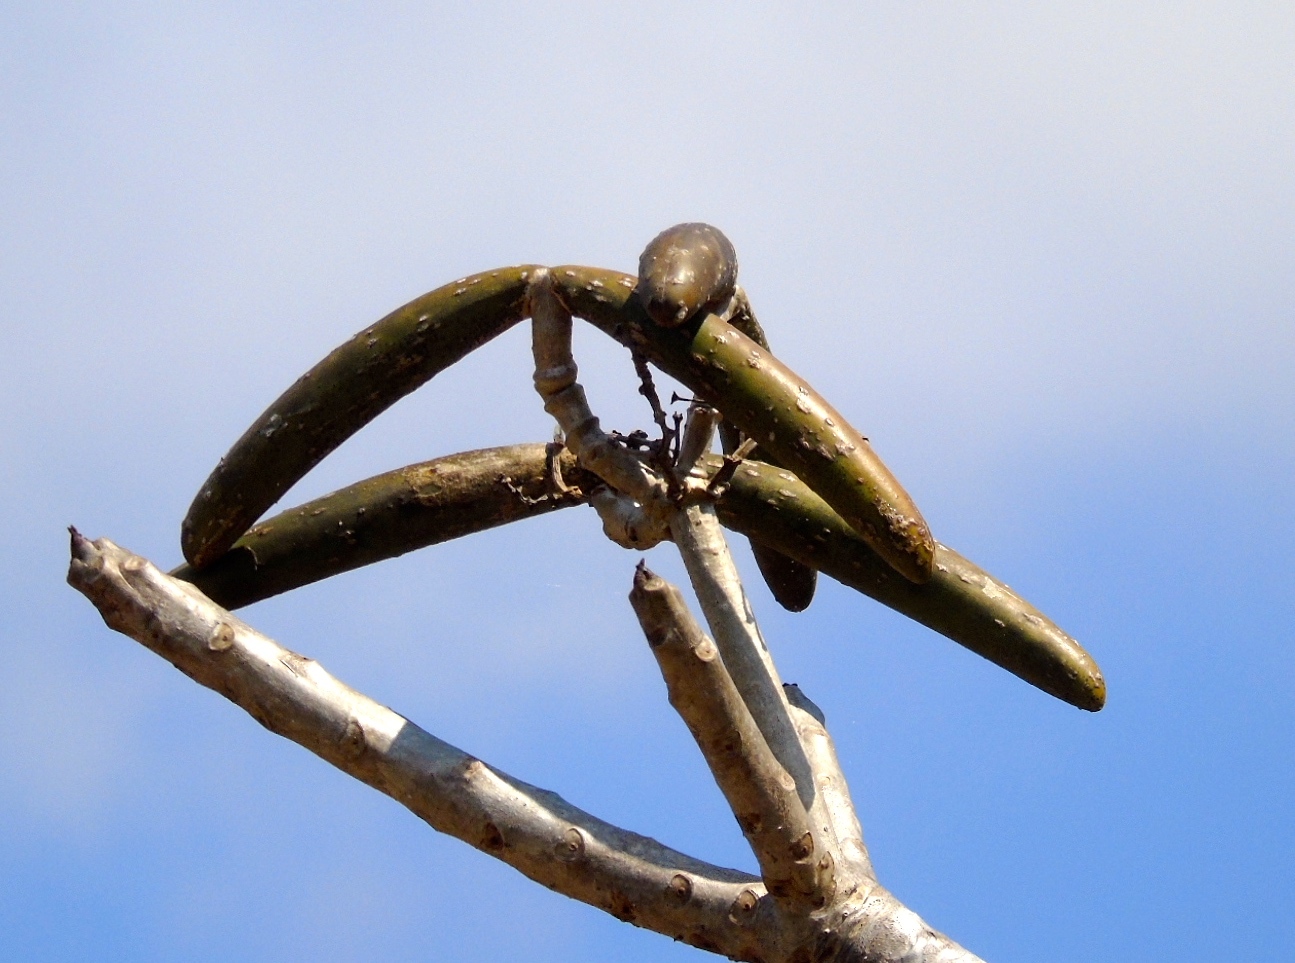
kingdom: Plantae
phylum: Tracheophyta
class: Magnoliopsida
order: Gentianales
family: Apocynaceae
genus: Plumeria
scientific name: Plumeria rubra
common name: Pagoda-tree
